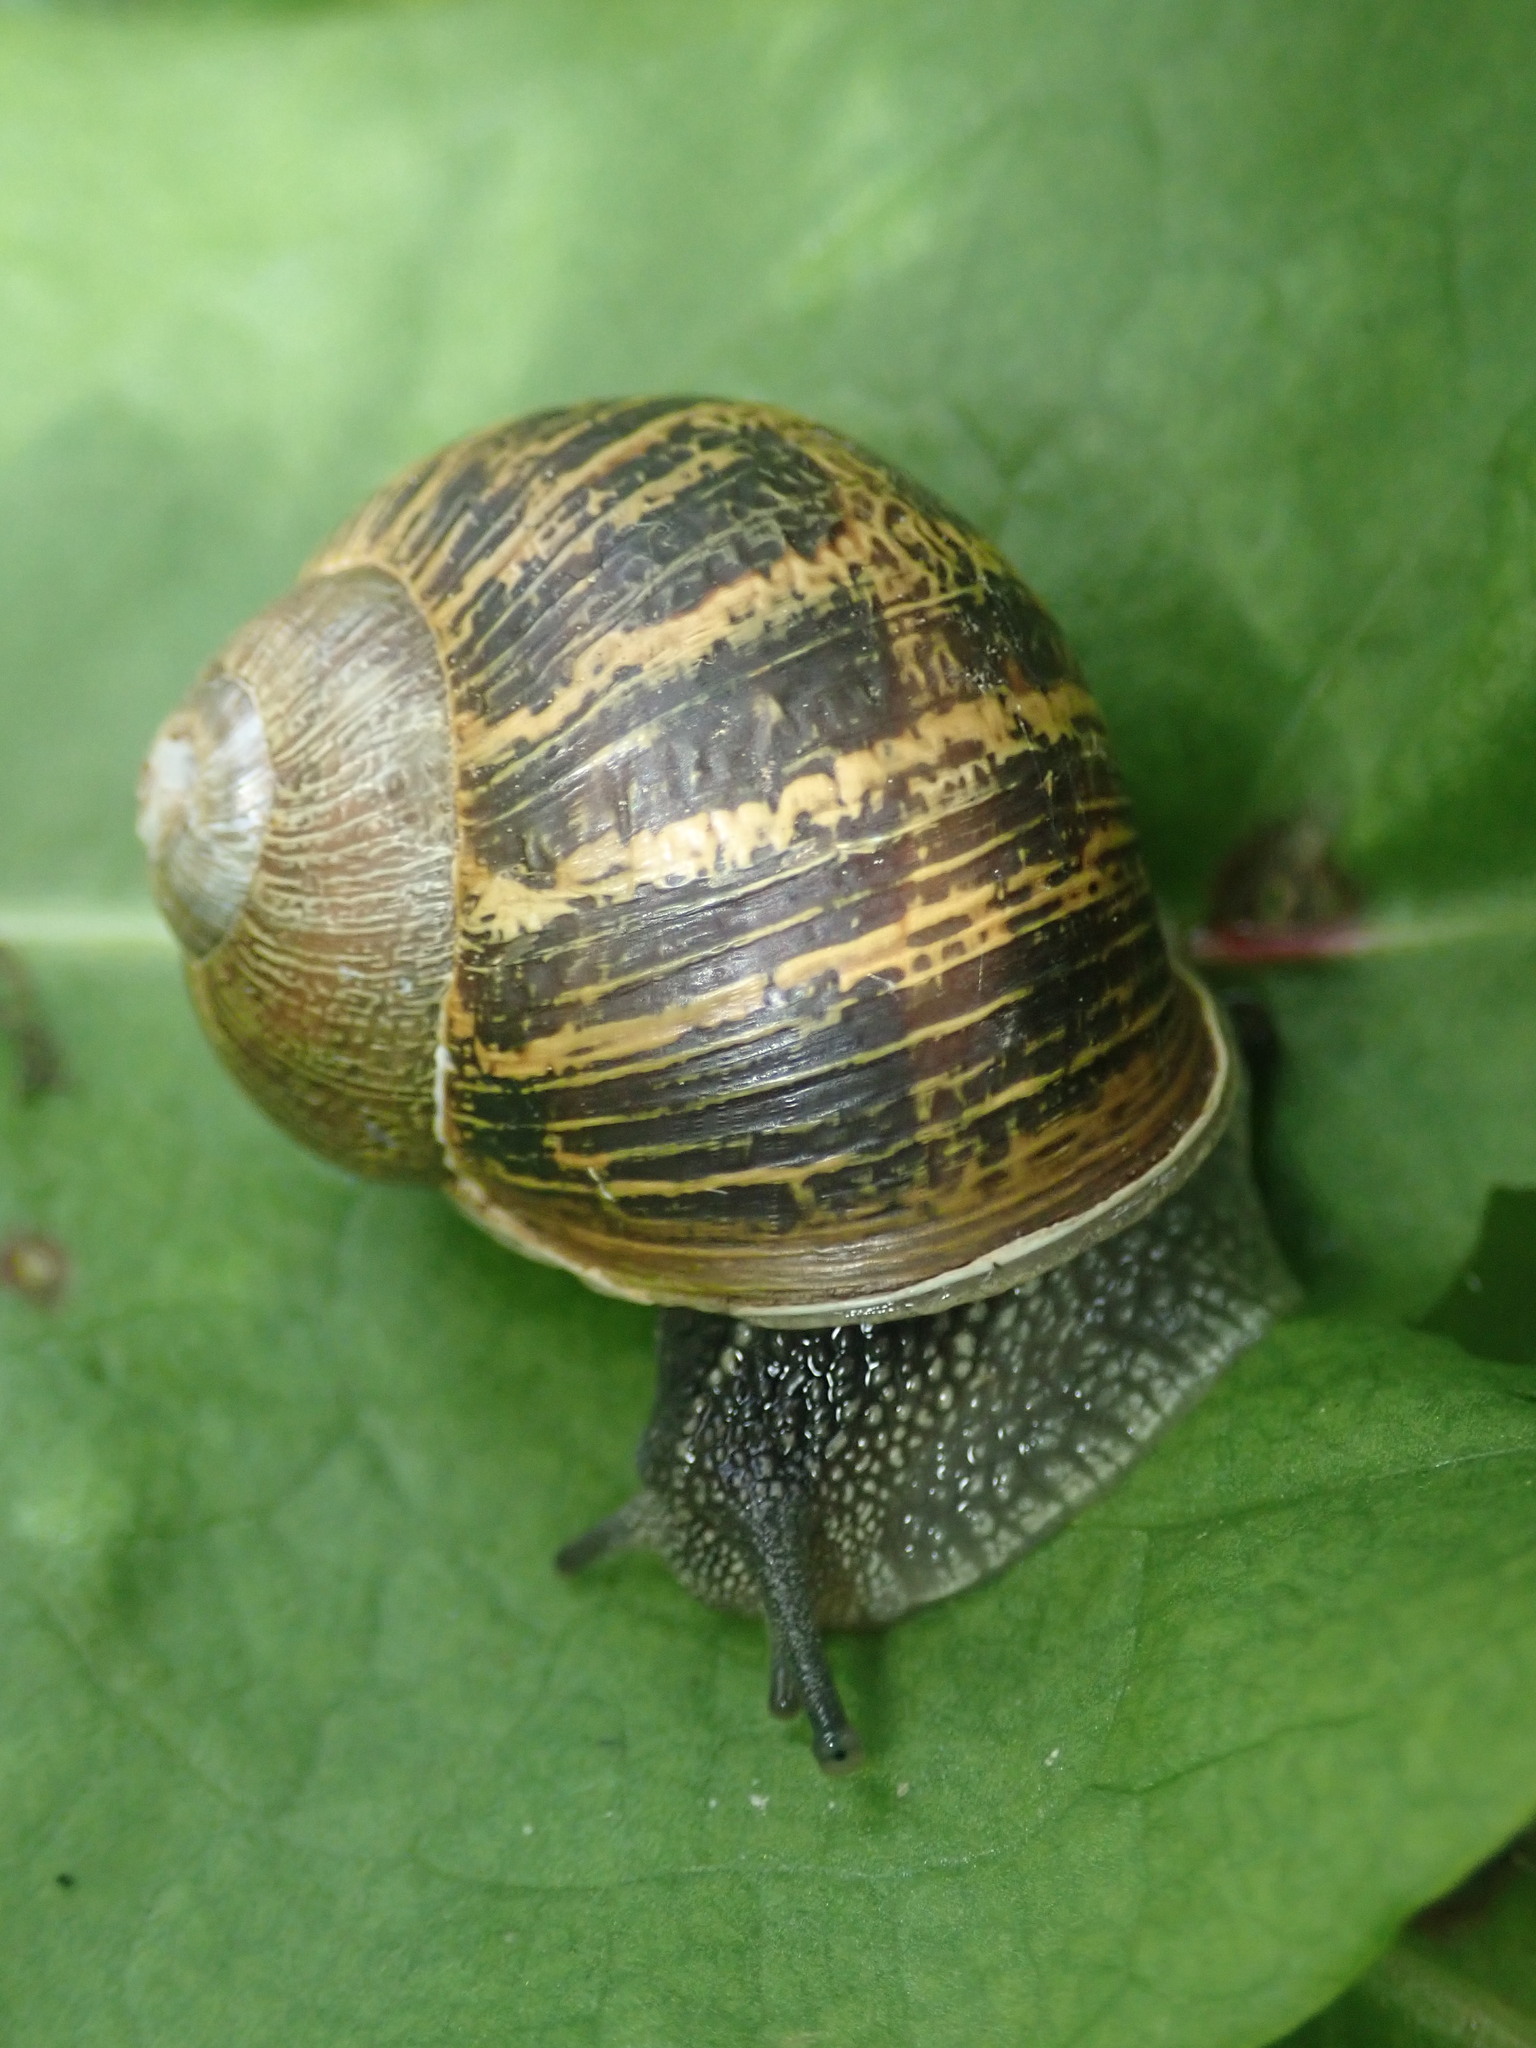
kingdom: Animalia
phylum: Mollusca
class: Gastropoda
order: Stylommatophora
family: Helicidae
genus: Cornu
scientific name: Cornu aspersum
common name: Brown garden snail
